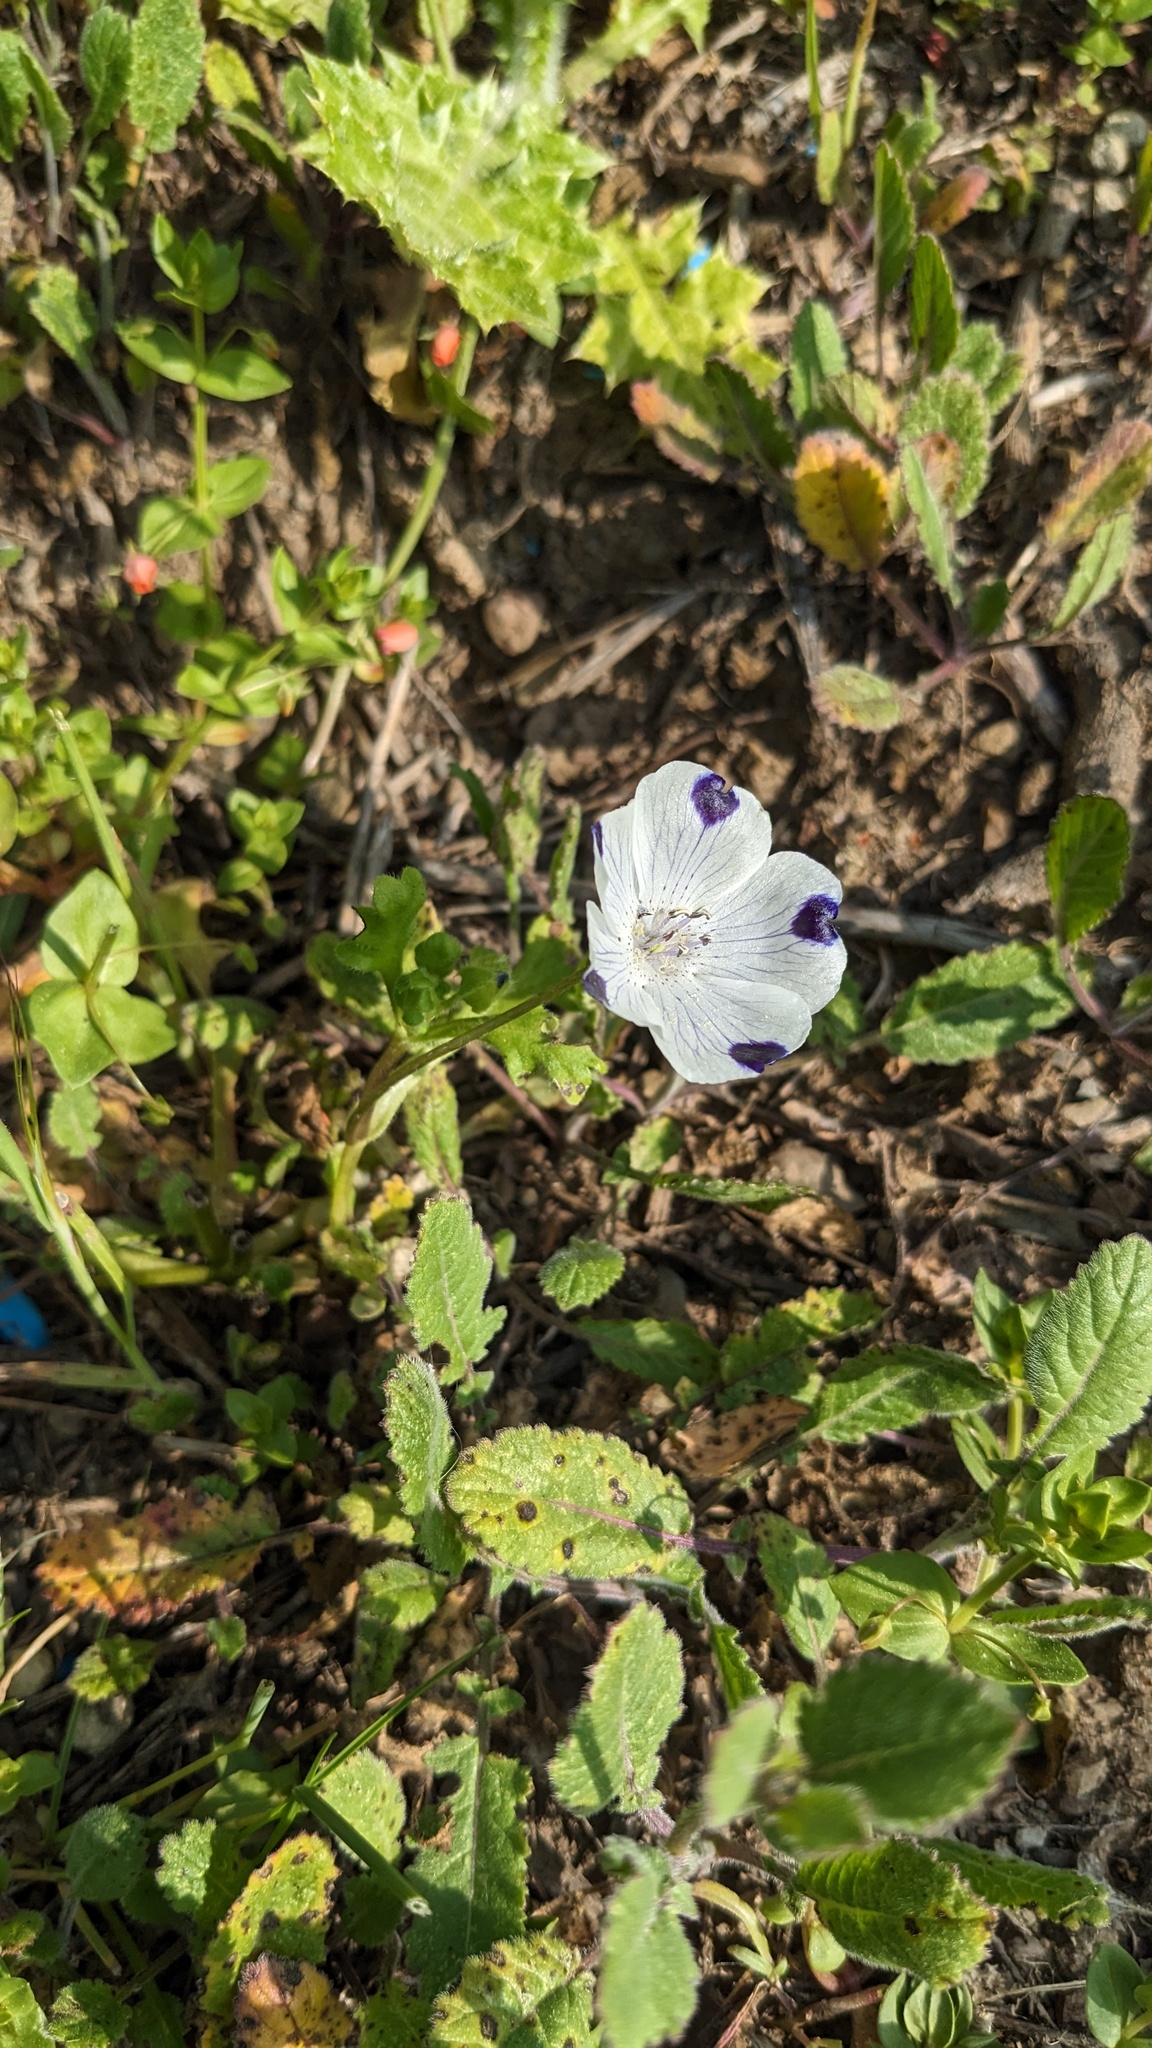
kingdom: Plantae
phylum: Tracheophyta
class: Magnoliopsida
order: Boraginales
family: Hydrophyllaceae
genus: Nemophila
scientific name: Nemophila maculata
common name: Fivespot
